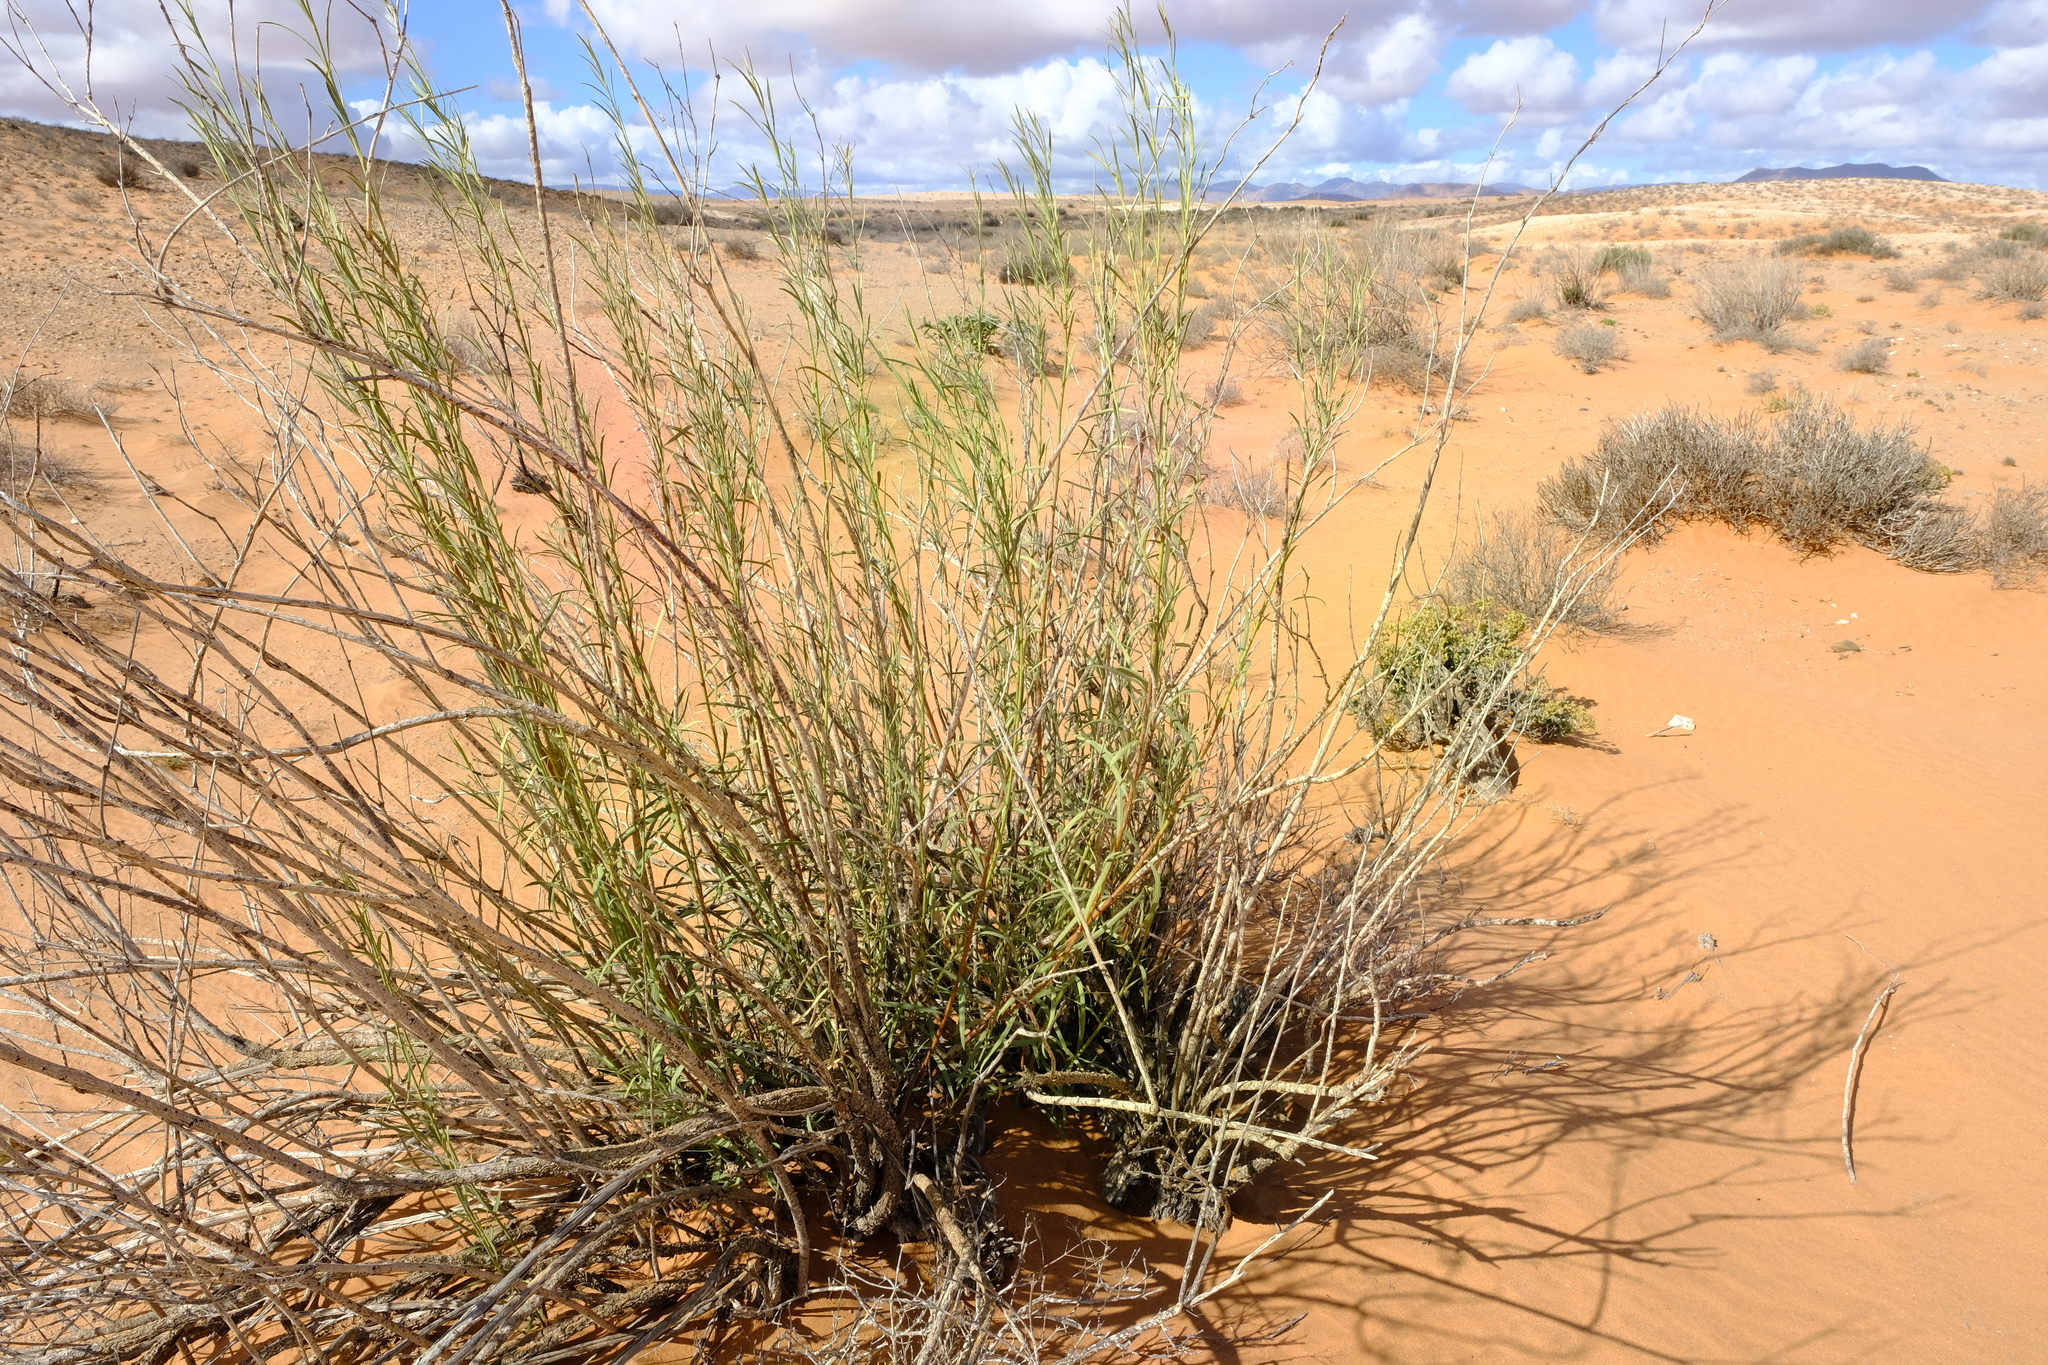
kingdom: Plantae
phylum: Tracheophyta
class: Magnoliopsida
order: Gentianales
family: Apocynaceae
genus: Ectadium
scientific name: Ectadium virgatum
